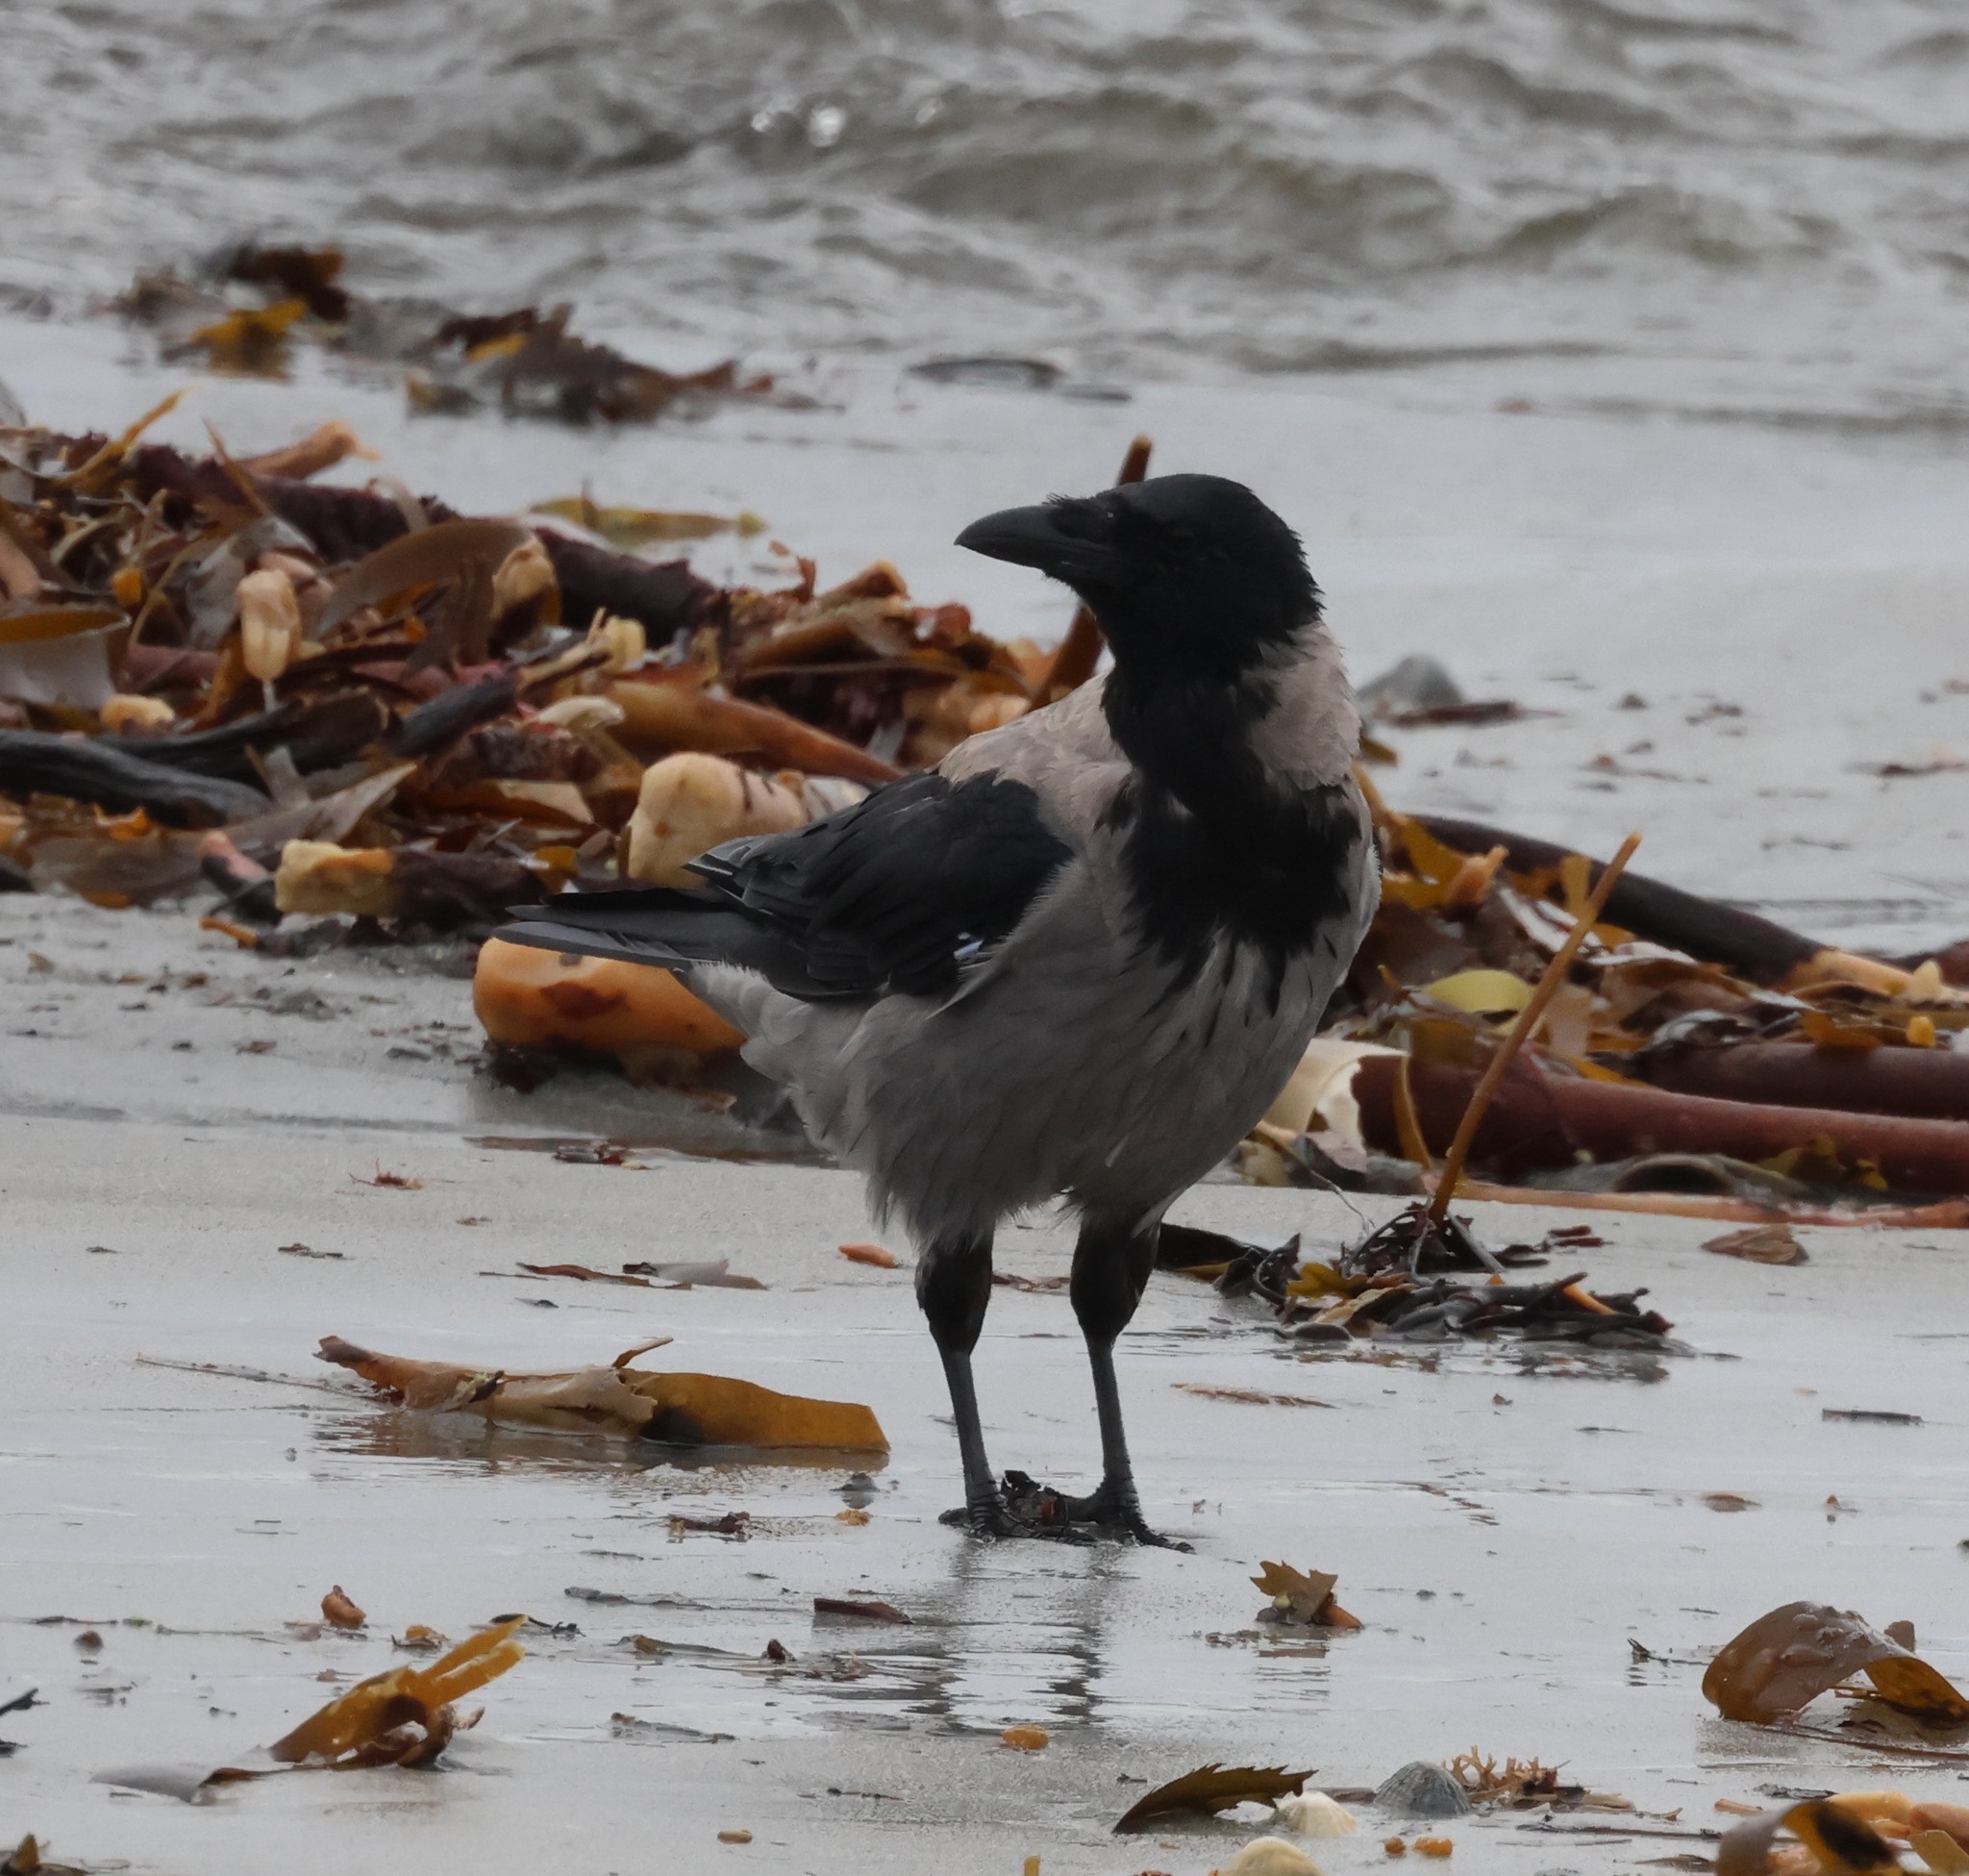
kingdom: Animalia
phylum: Chordata
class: Aves
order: Passeriformes
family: Corvidae
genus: Corvus
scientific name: Corvus cornix
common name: Hooded crow
